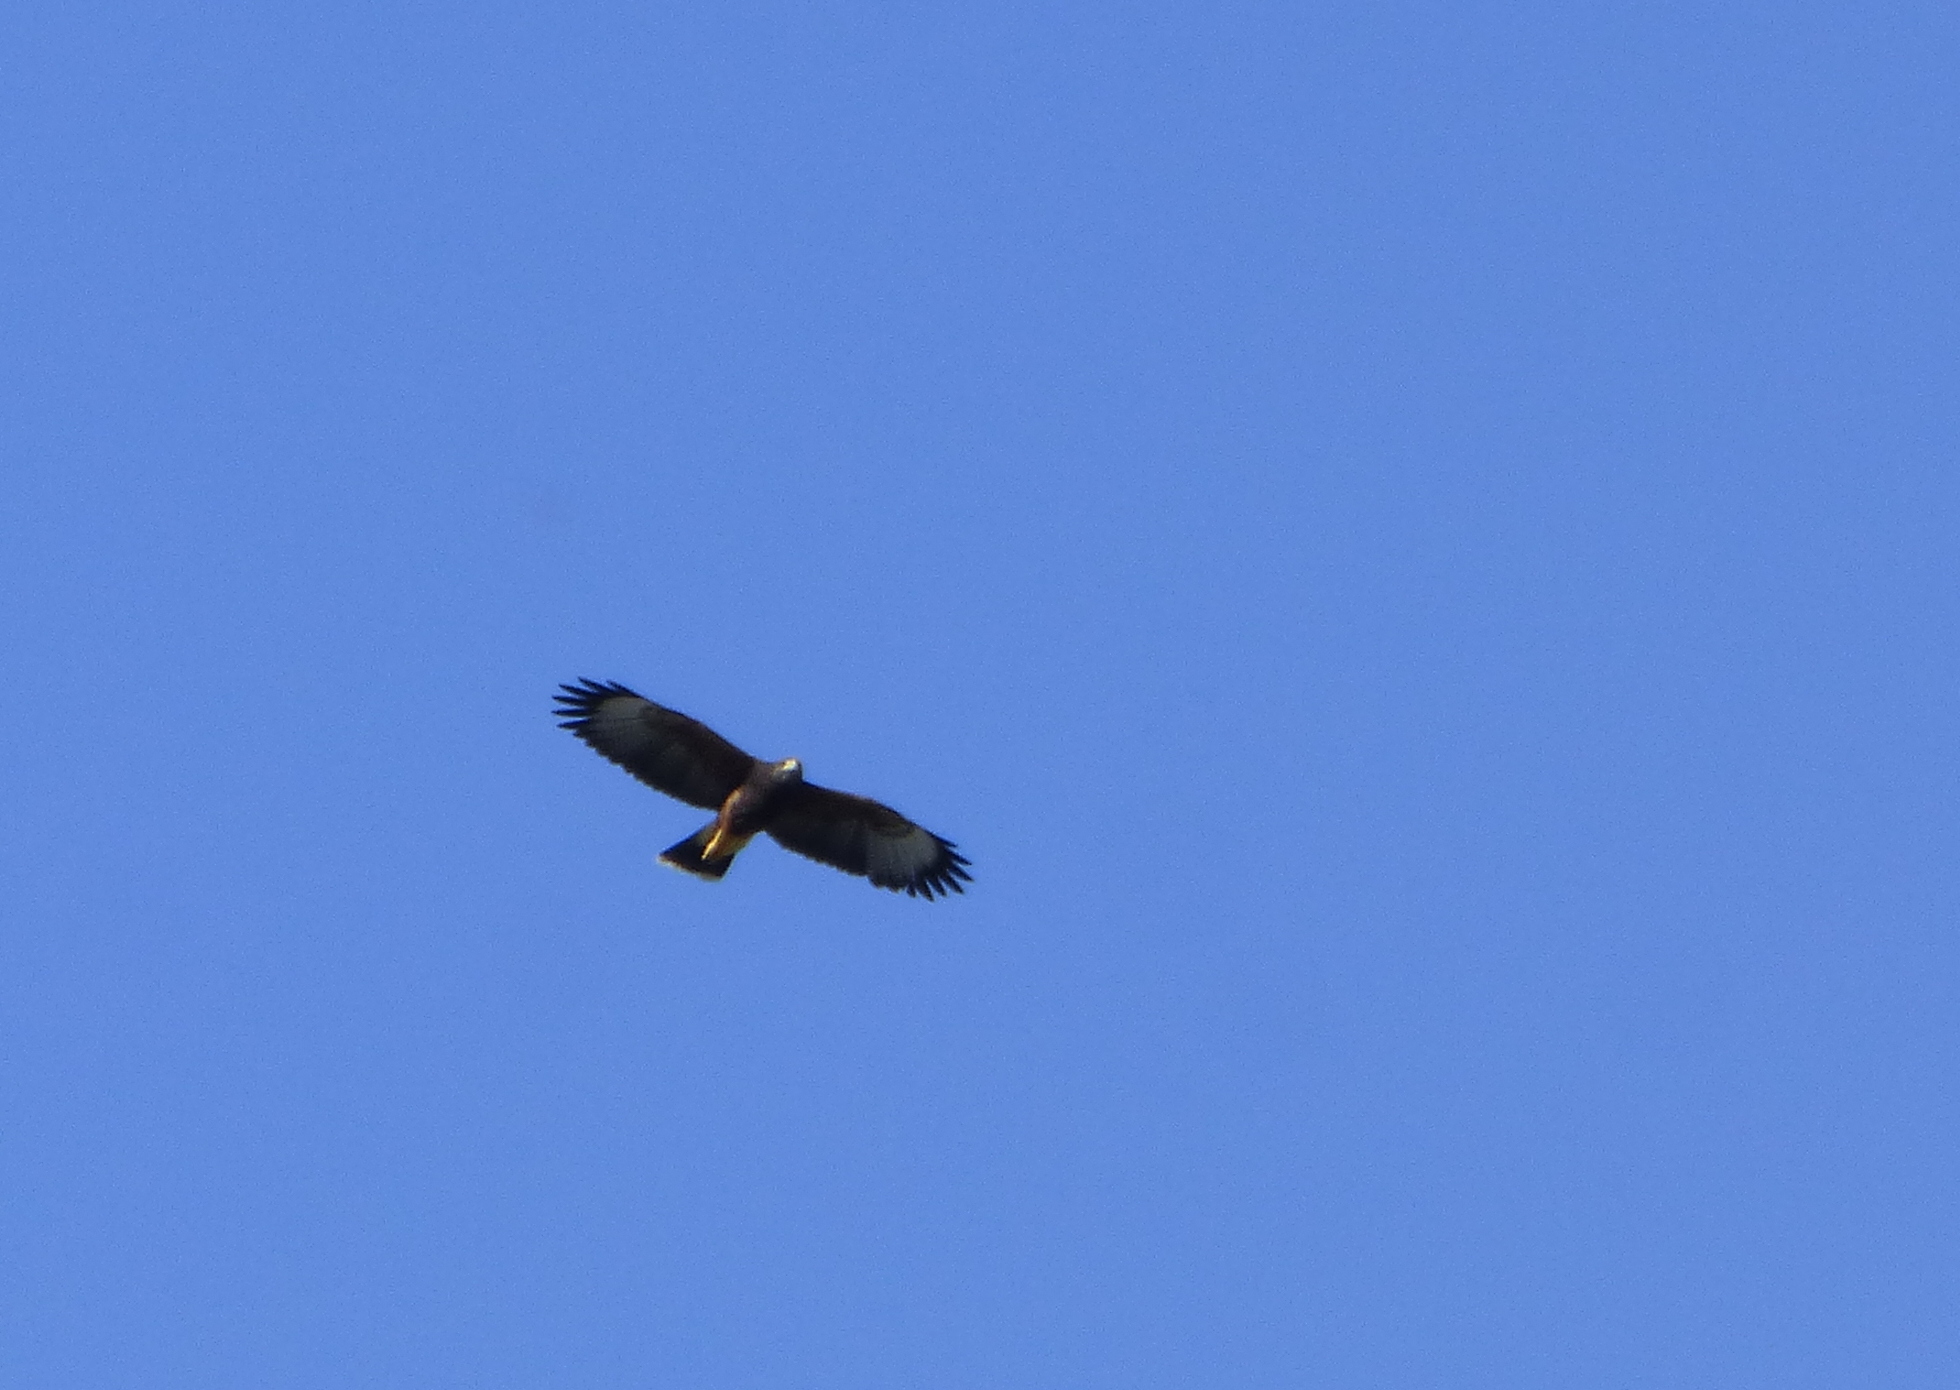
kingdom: Animalia
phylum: Chordata
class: Aves
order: Accipitriformes
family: Accipitridae
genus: Parabuteo
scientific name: Parabuteo unicinctus
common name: Harris's hawk
